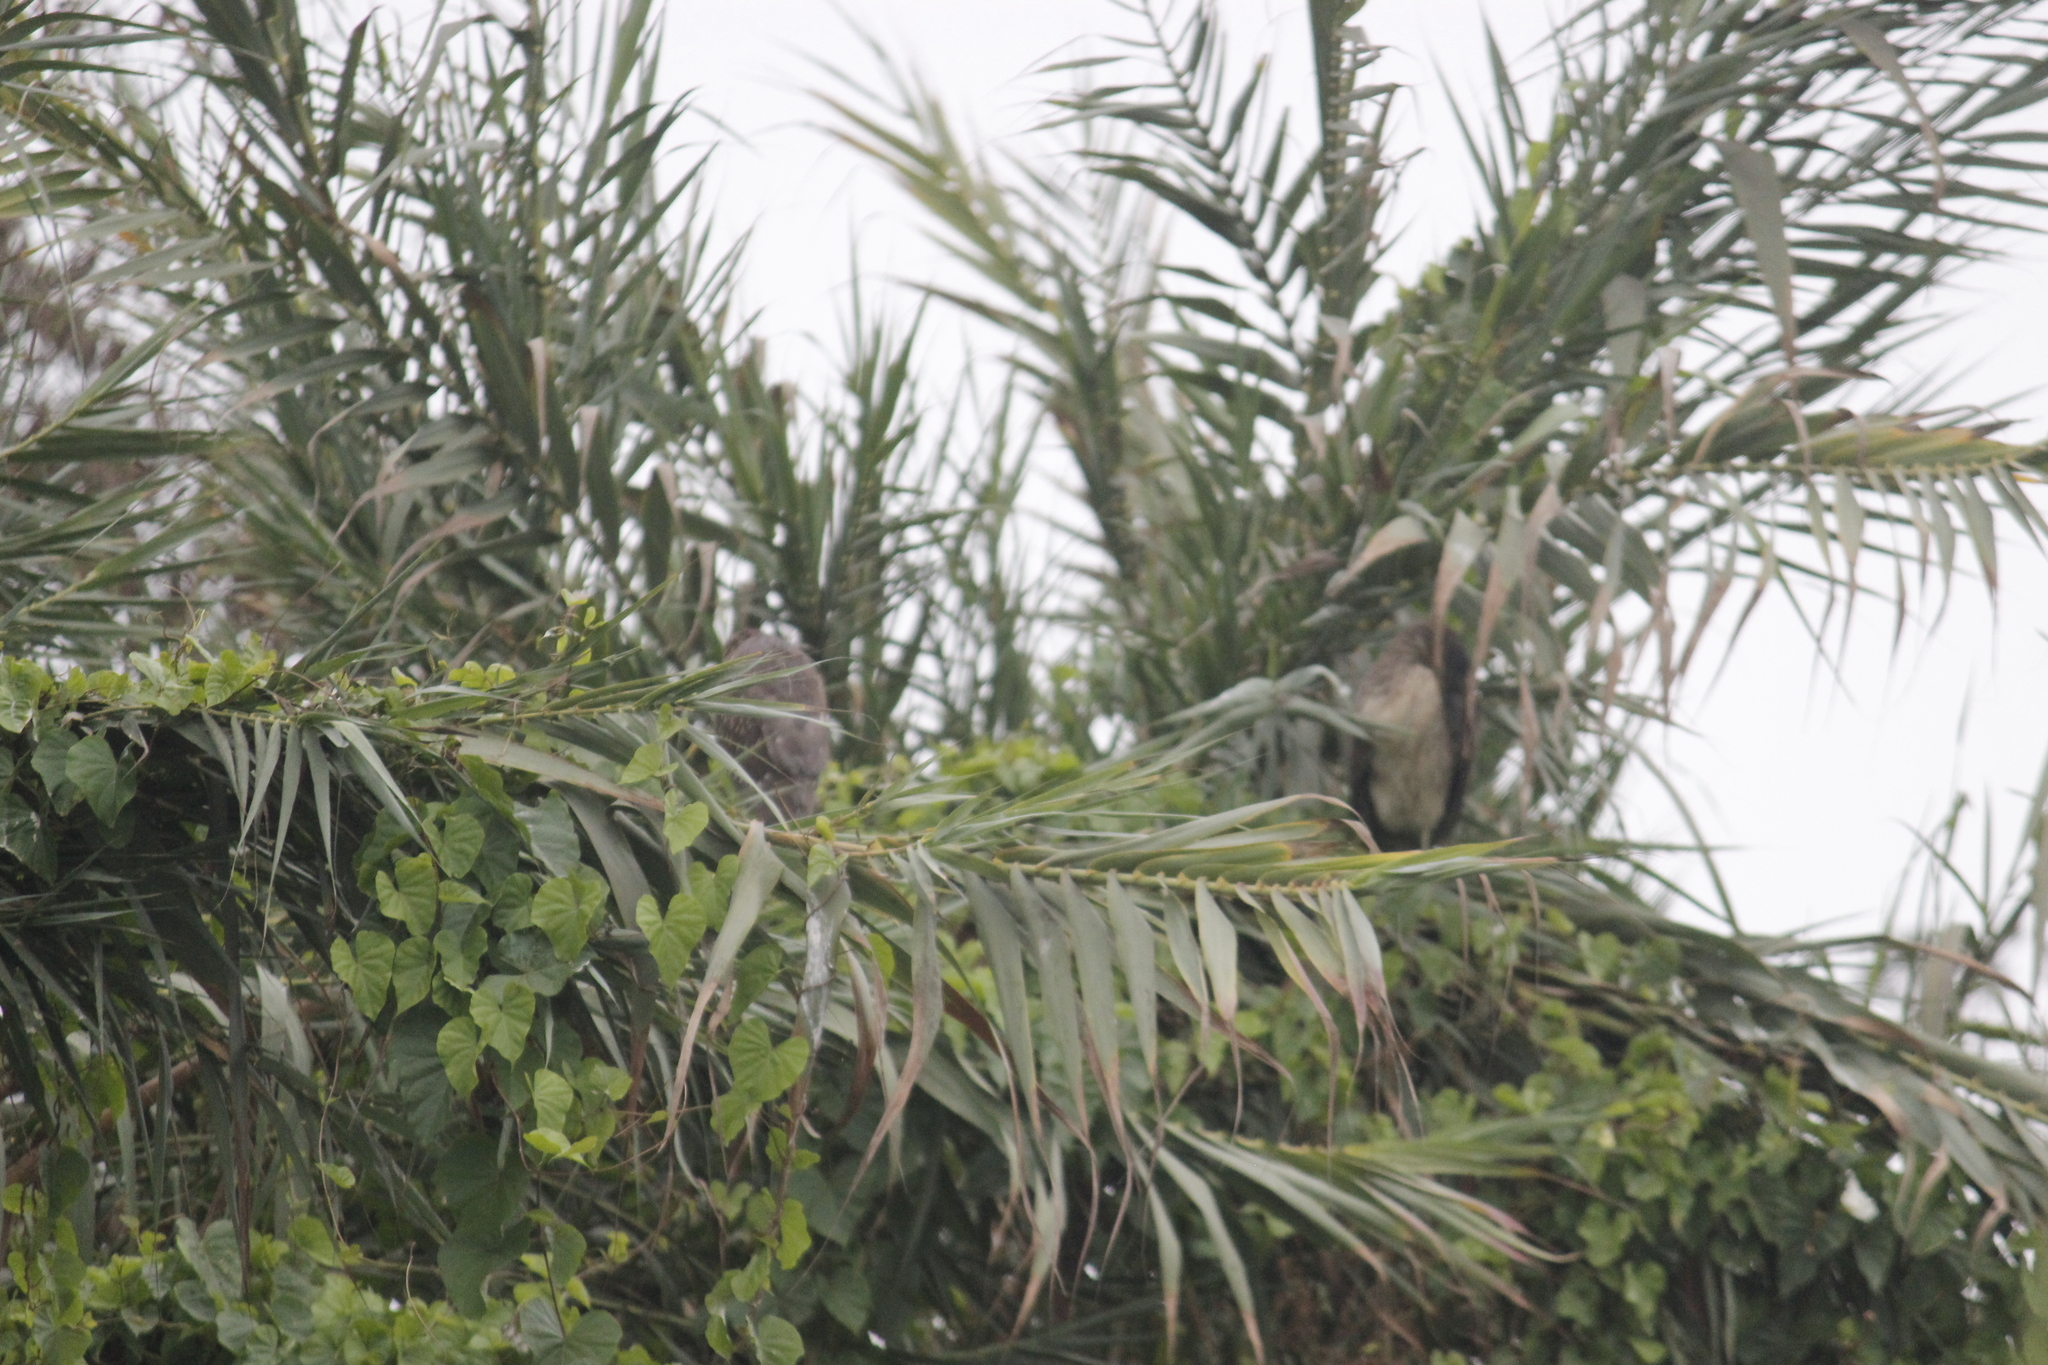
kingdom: Animalia
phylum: Chordata
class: Aves
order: Pelecaniformes
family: Ardeidae
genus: Nycticorax
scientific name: Nycticorax nycticorax
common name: Black-crowned night heron
